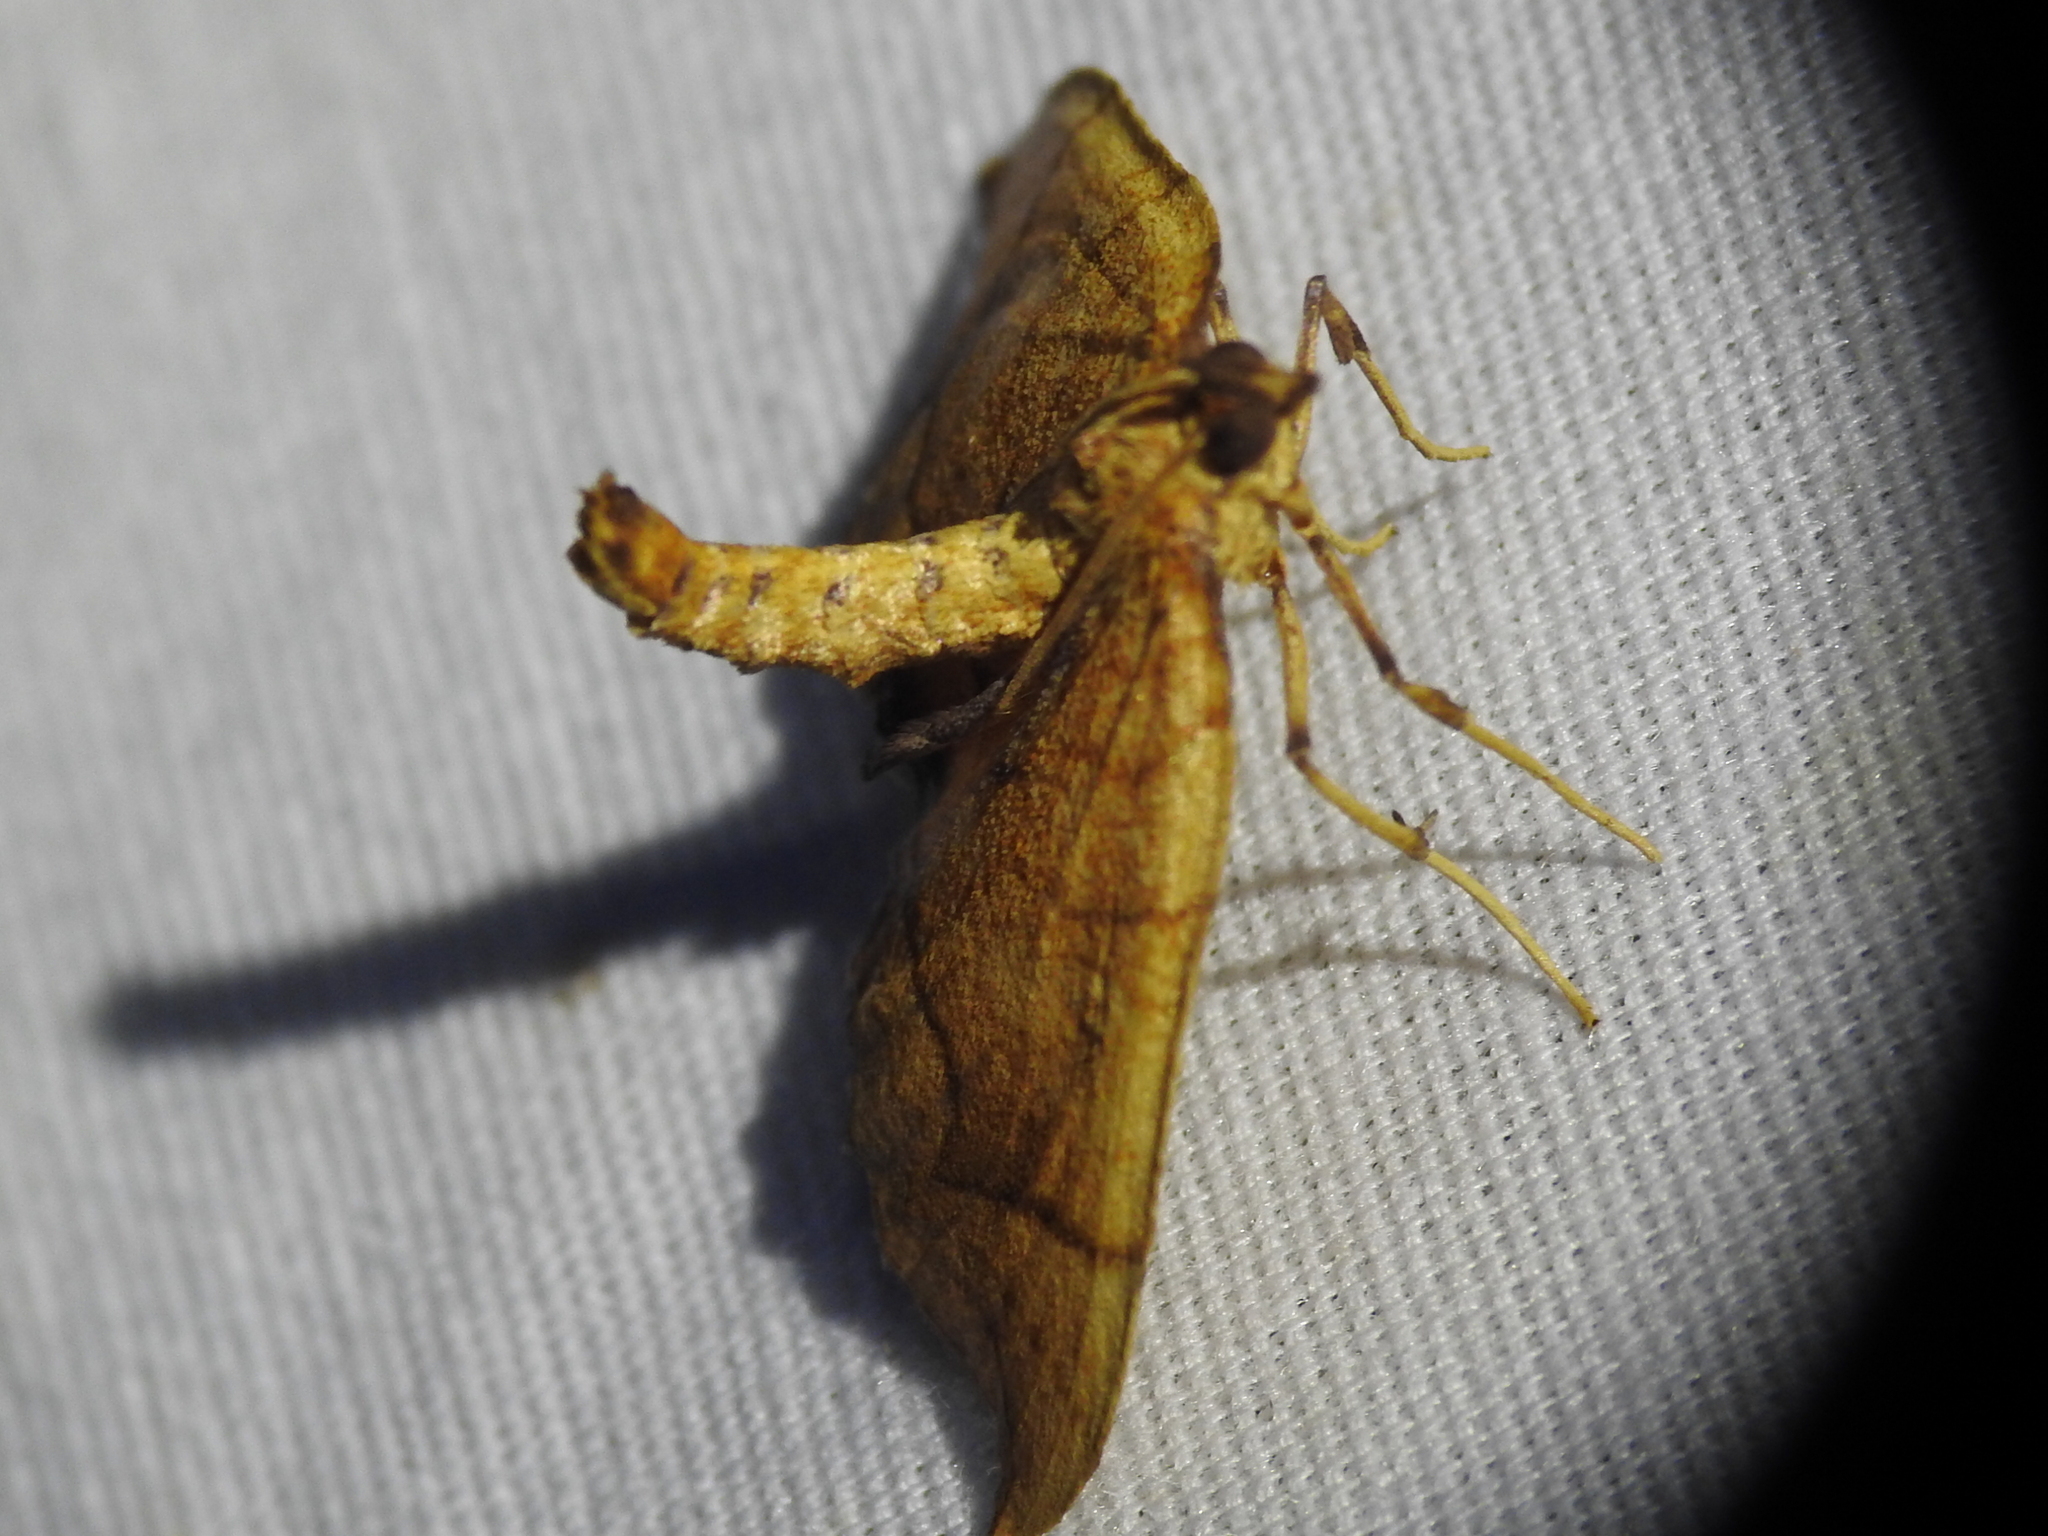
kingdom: Animalia
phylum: Arthropoda
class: Insecta
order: Lepidoptera
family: Geometridae
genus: Eulithis
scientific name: Eulithis
